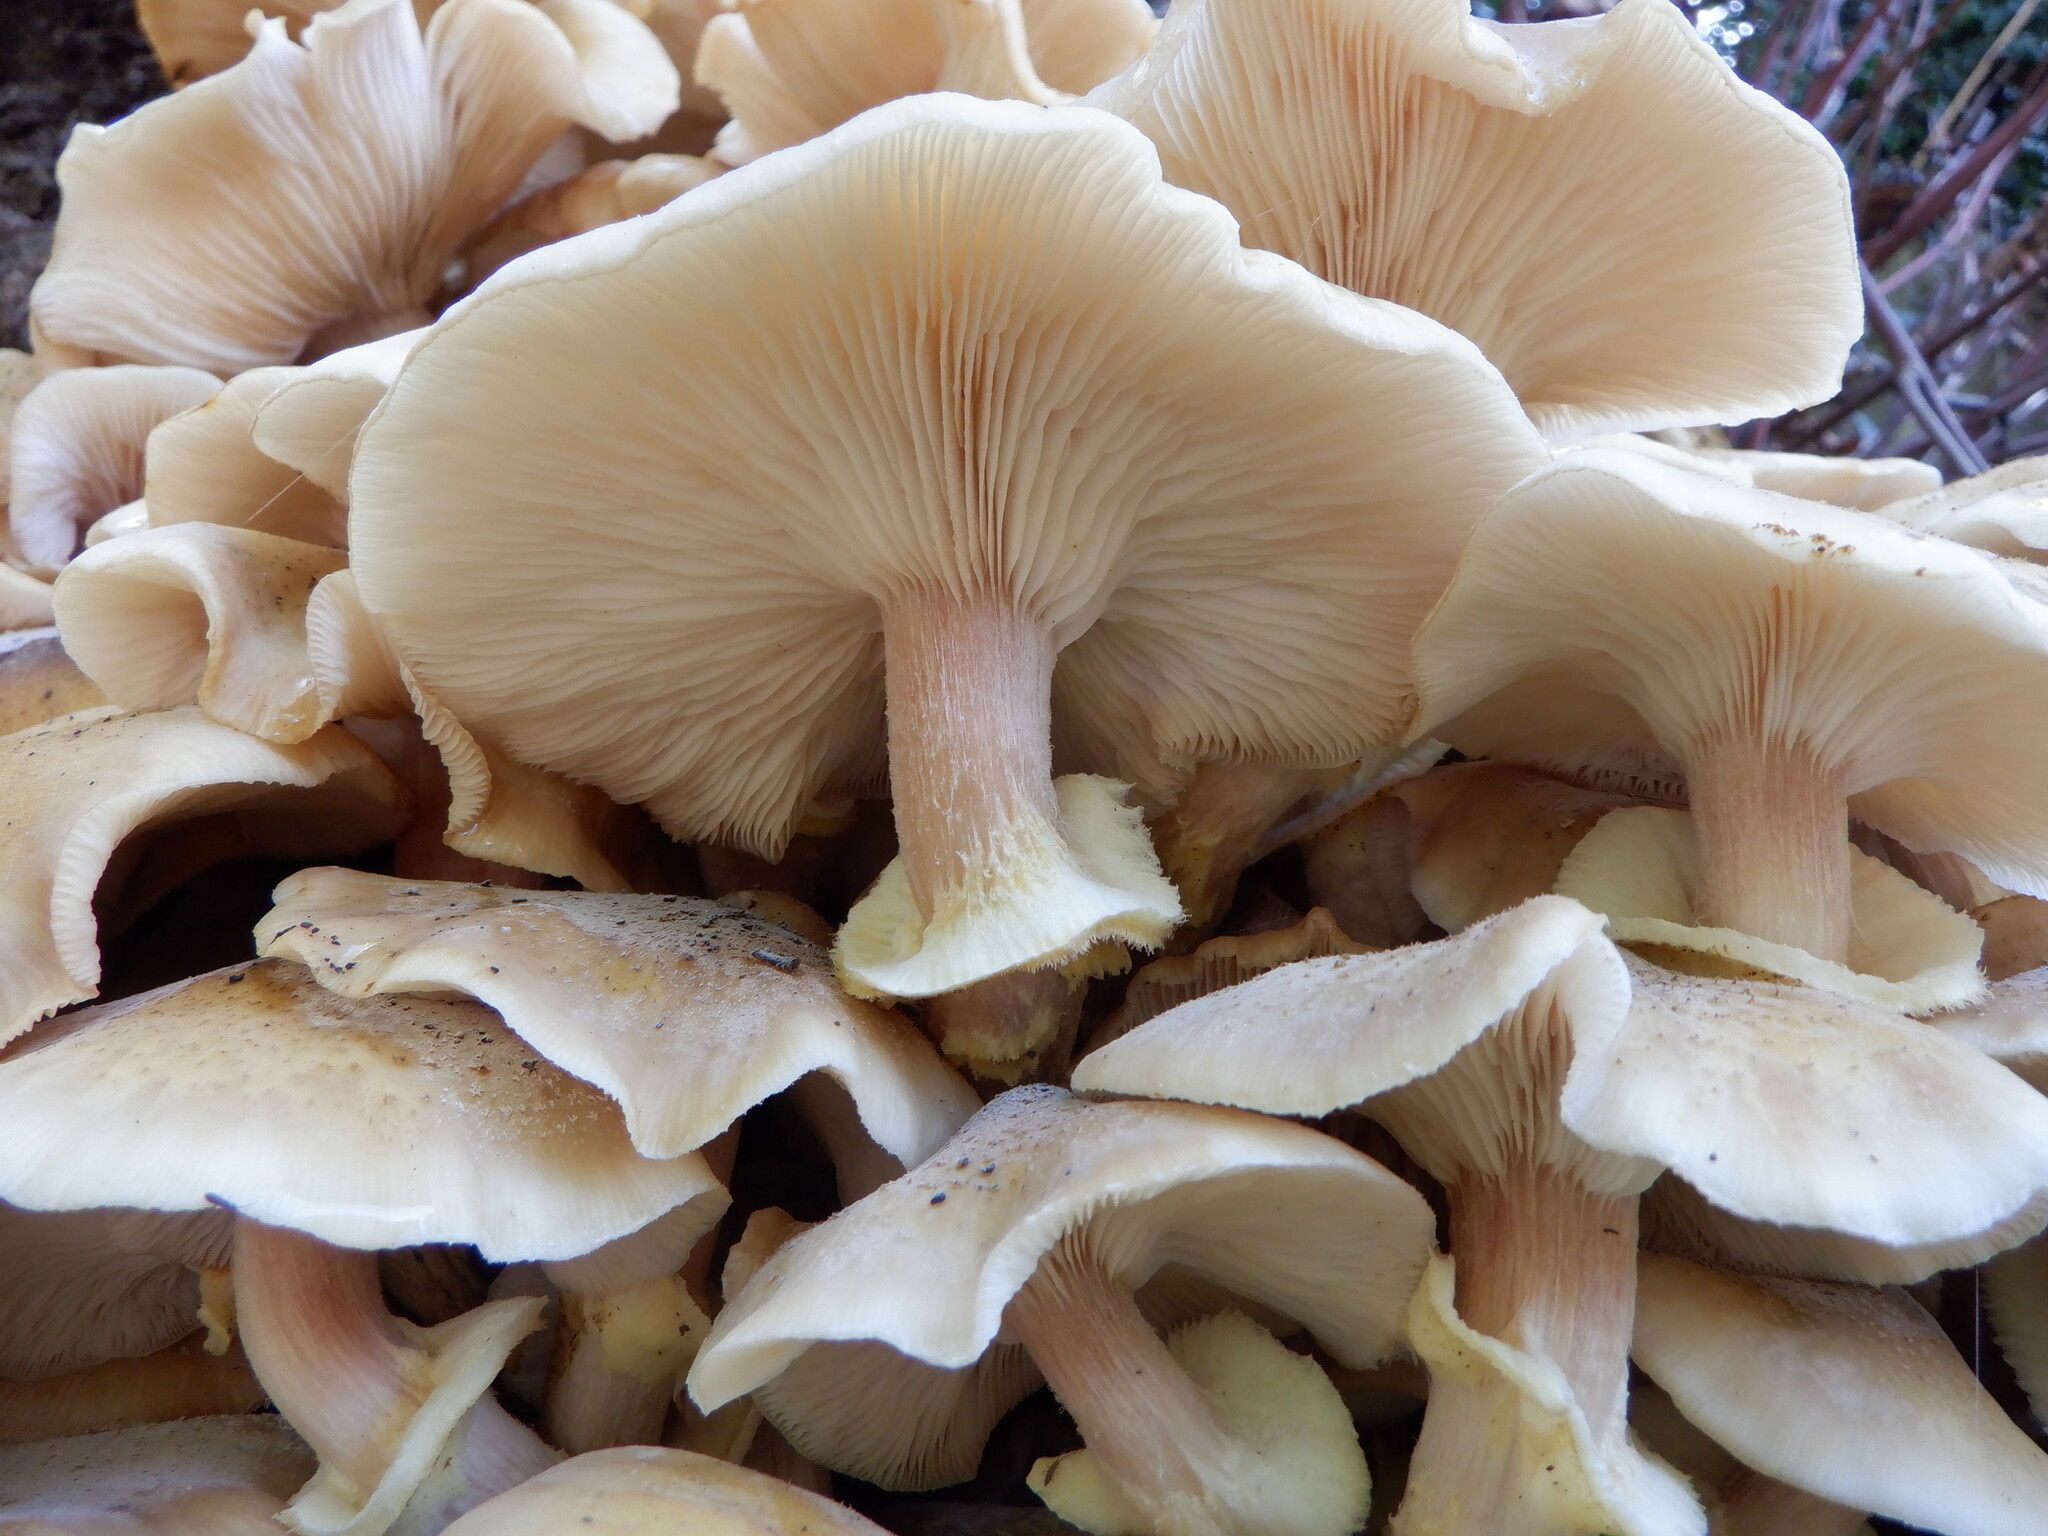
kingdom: Fungi
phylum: Basidiomycota
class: Agaricomycetes
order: Agaricales
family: Physalacriaceae
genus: Armillaria
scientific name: Armillaria mellea
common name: Honey fungus
